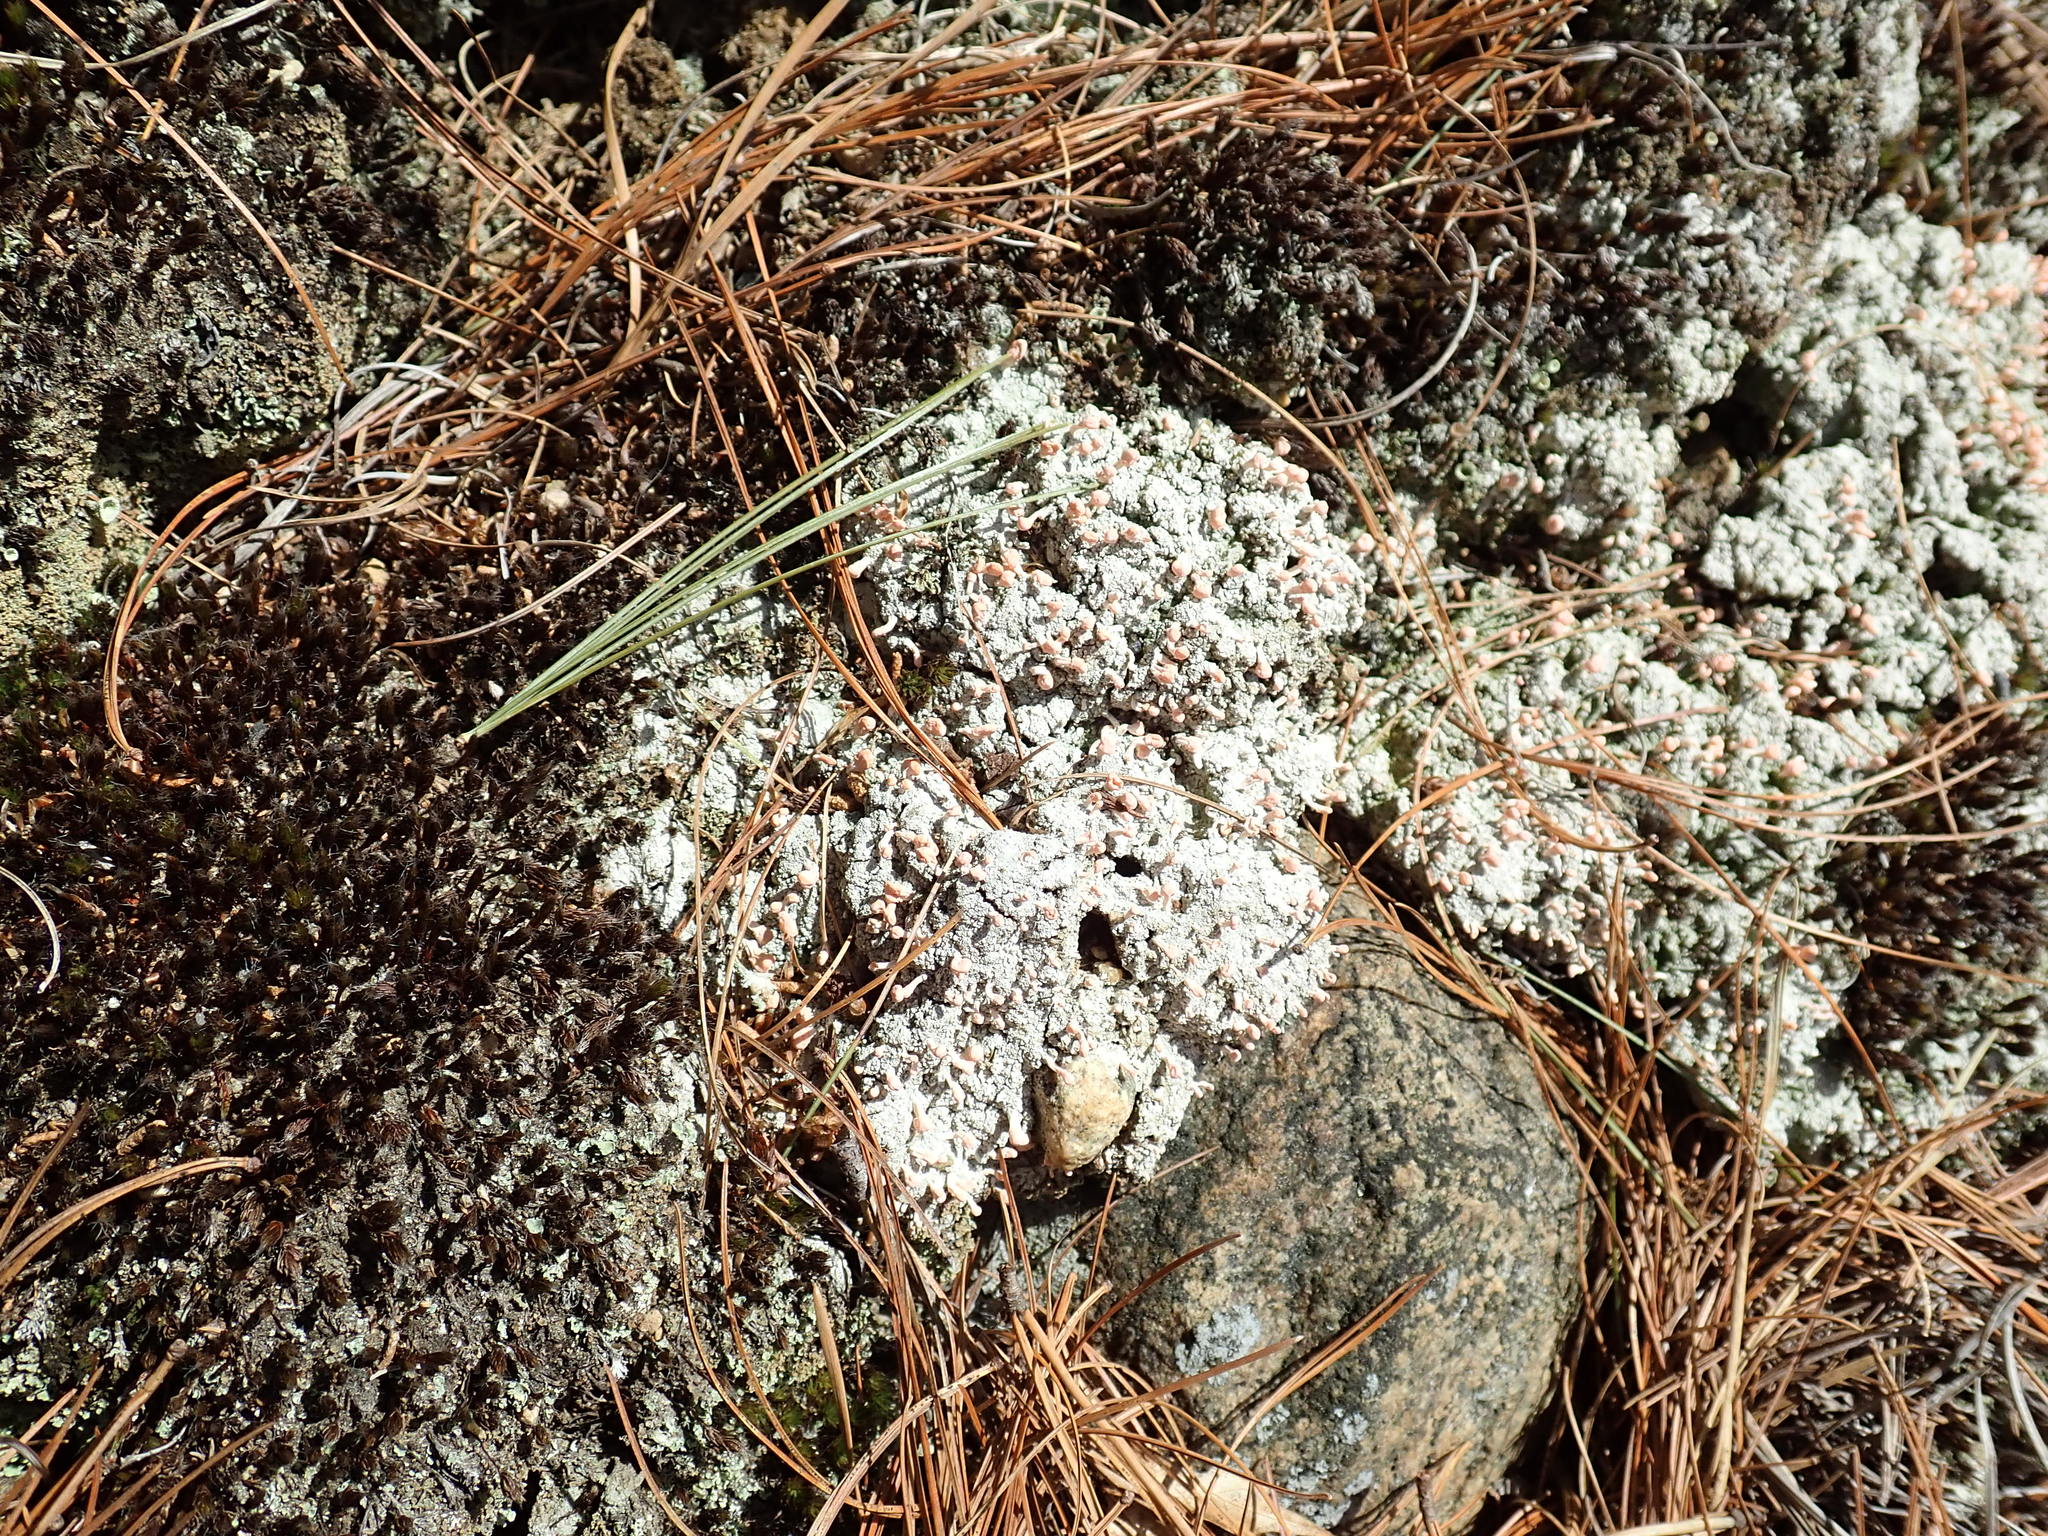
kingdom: Fungi
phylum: Ascomycota
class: Lecanoromycetes
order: Pertusariales
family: Icmadophilaceae
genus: Dibaeis
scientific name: Dibaeis baeomyces
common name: Pink earth lichen
